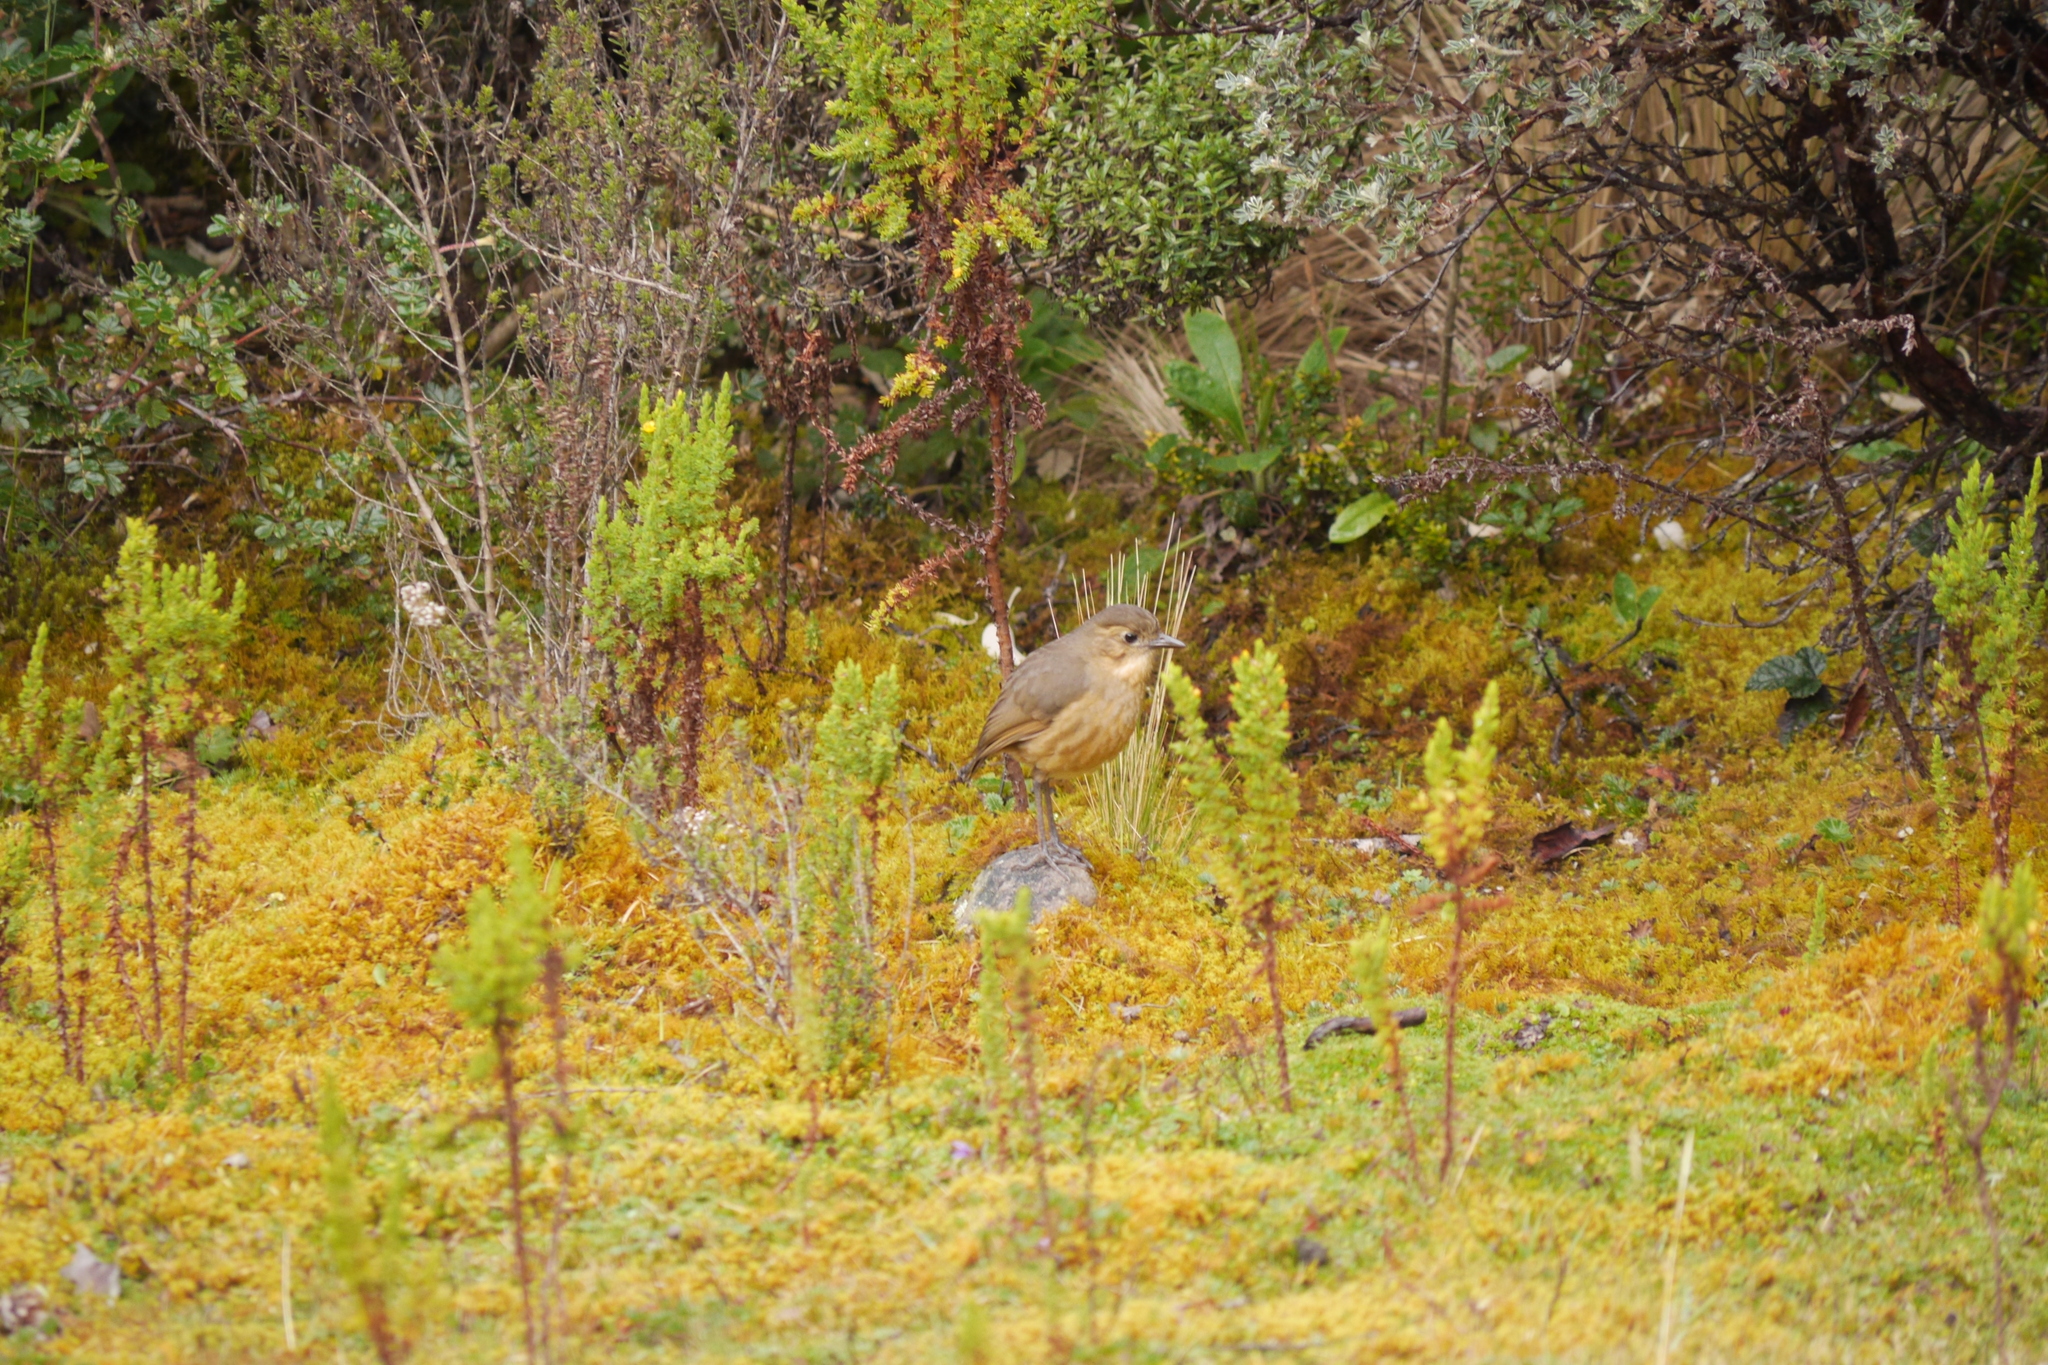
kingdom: Animalia
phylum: Chordata
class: Aves
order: Passeriformes
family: Grallariidae
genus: Grallaria
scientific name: Grallaria quitensis
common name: Tawny antpitta
